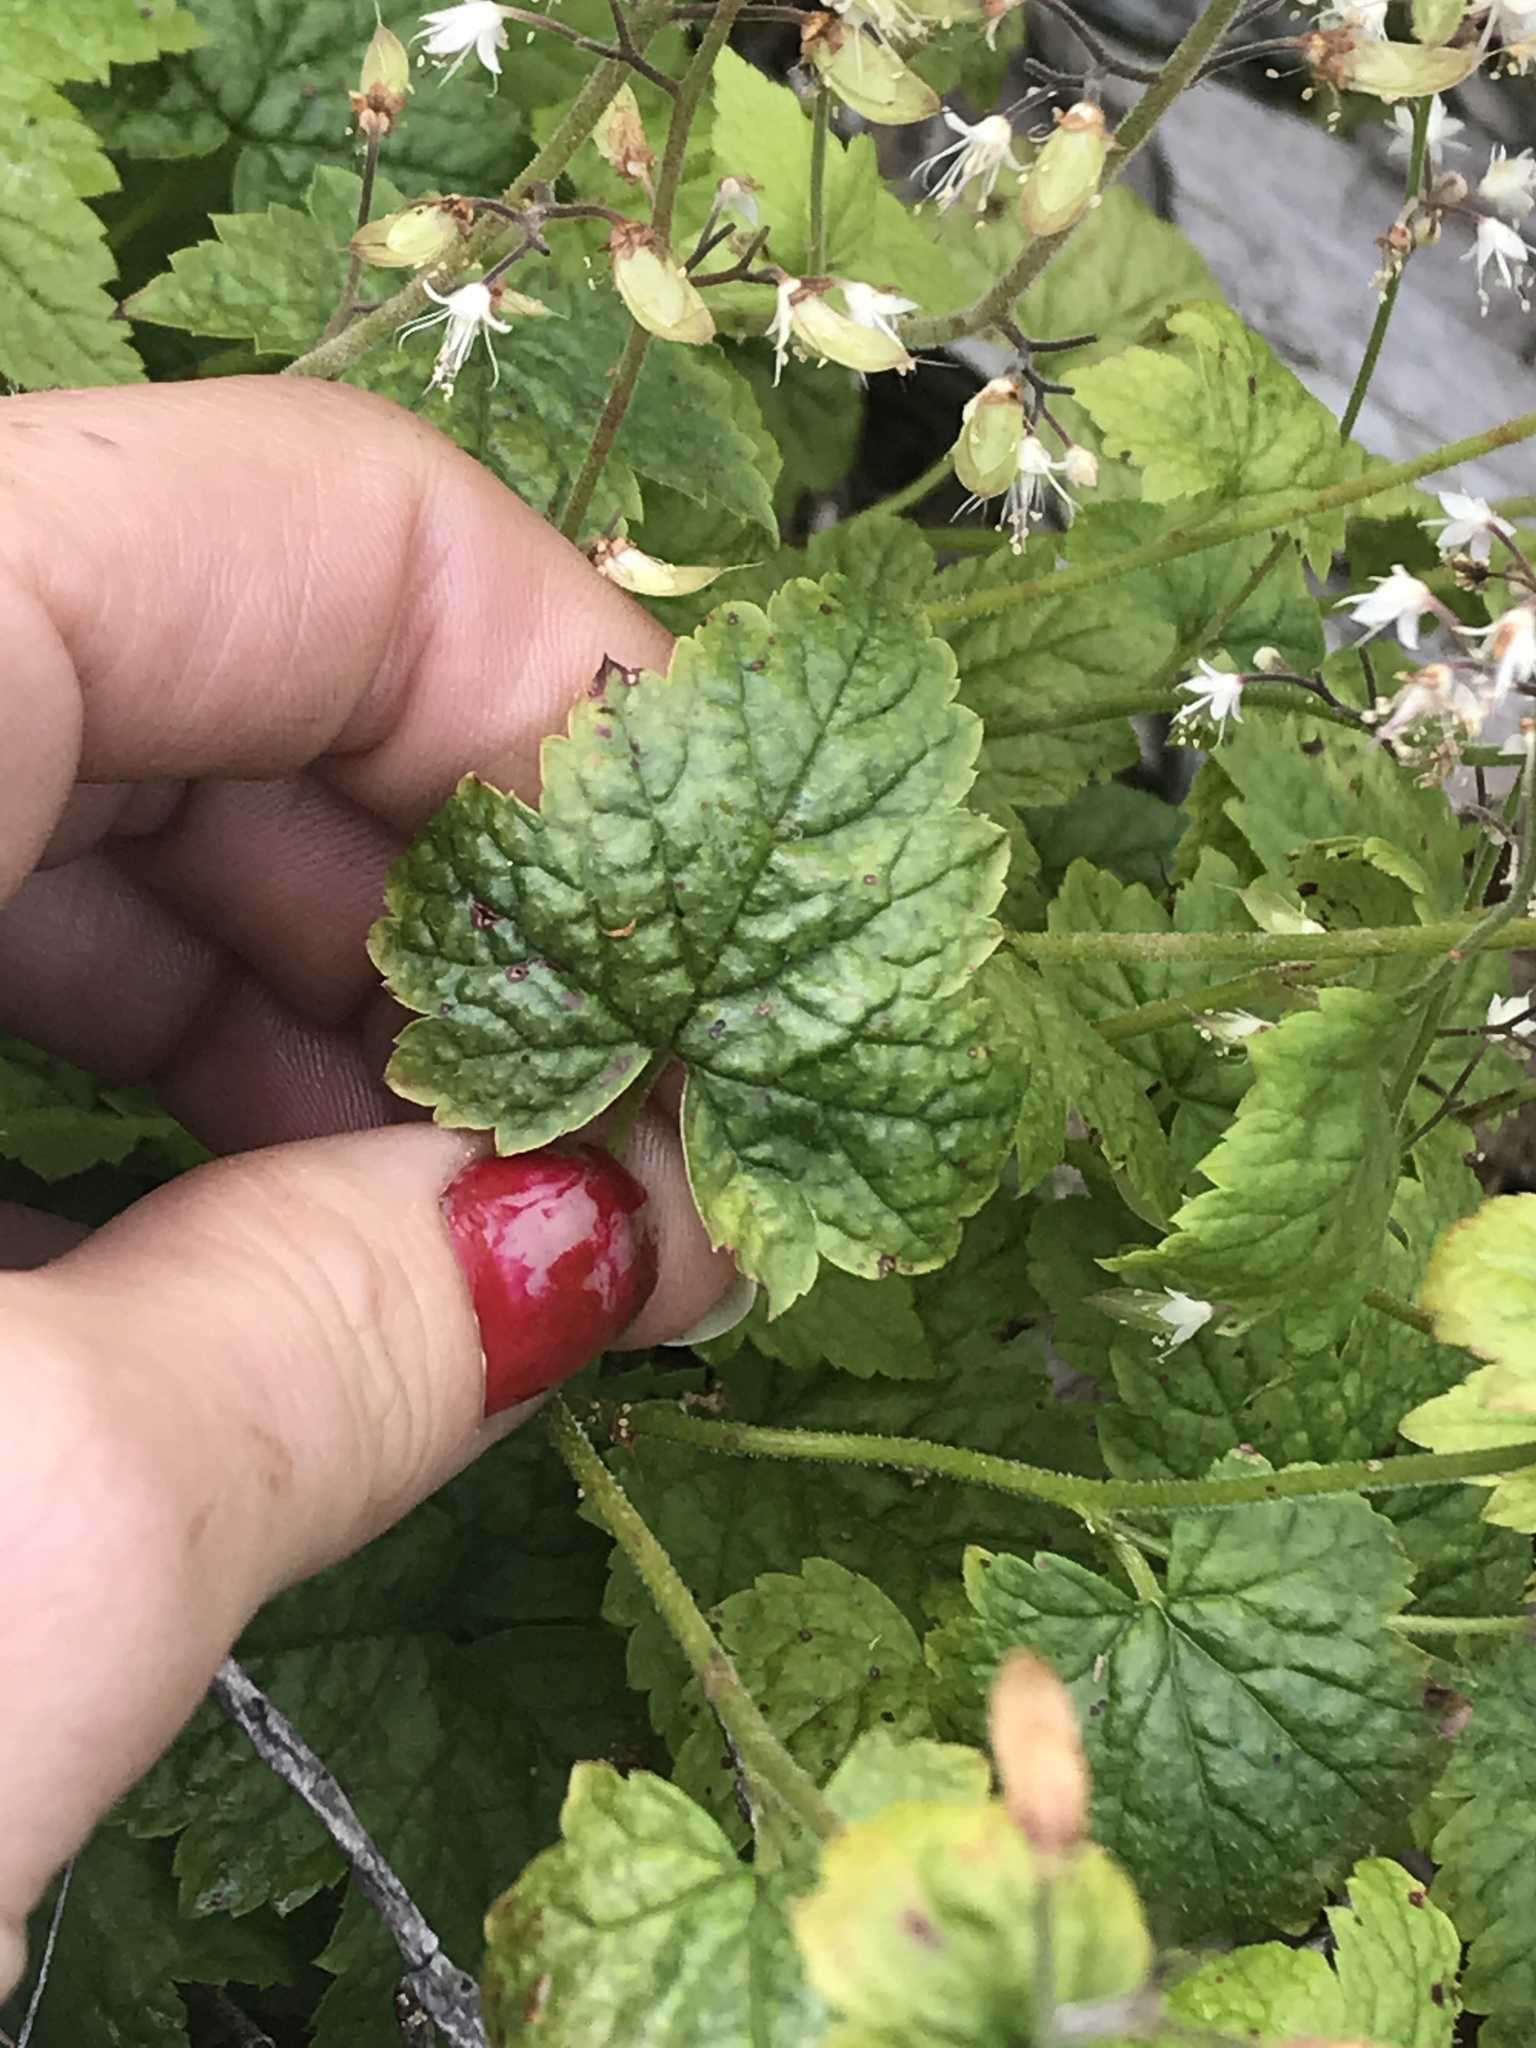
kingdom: Plantae
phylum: Tracheophyta
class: Magnoliopsida
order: Saxifragales
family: Saxifragaceae
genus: Tiarella
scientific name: Tiarella trifoliata
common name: Sugar-scoop
